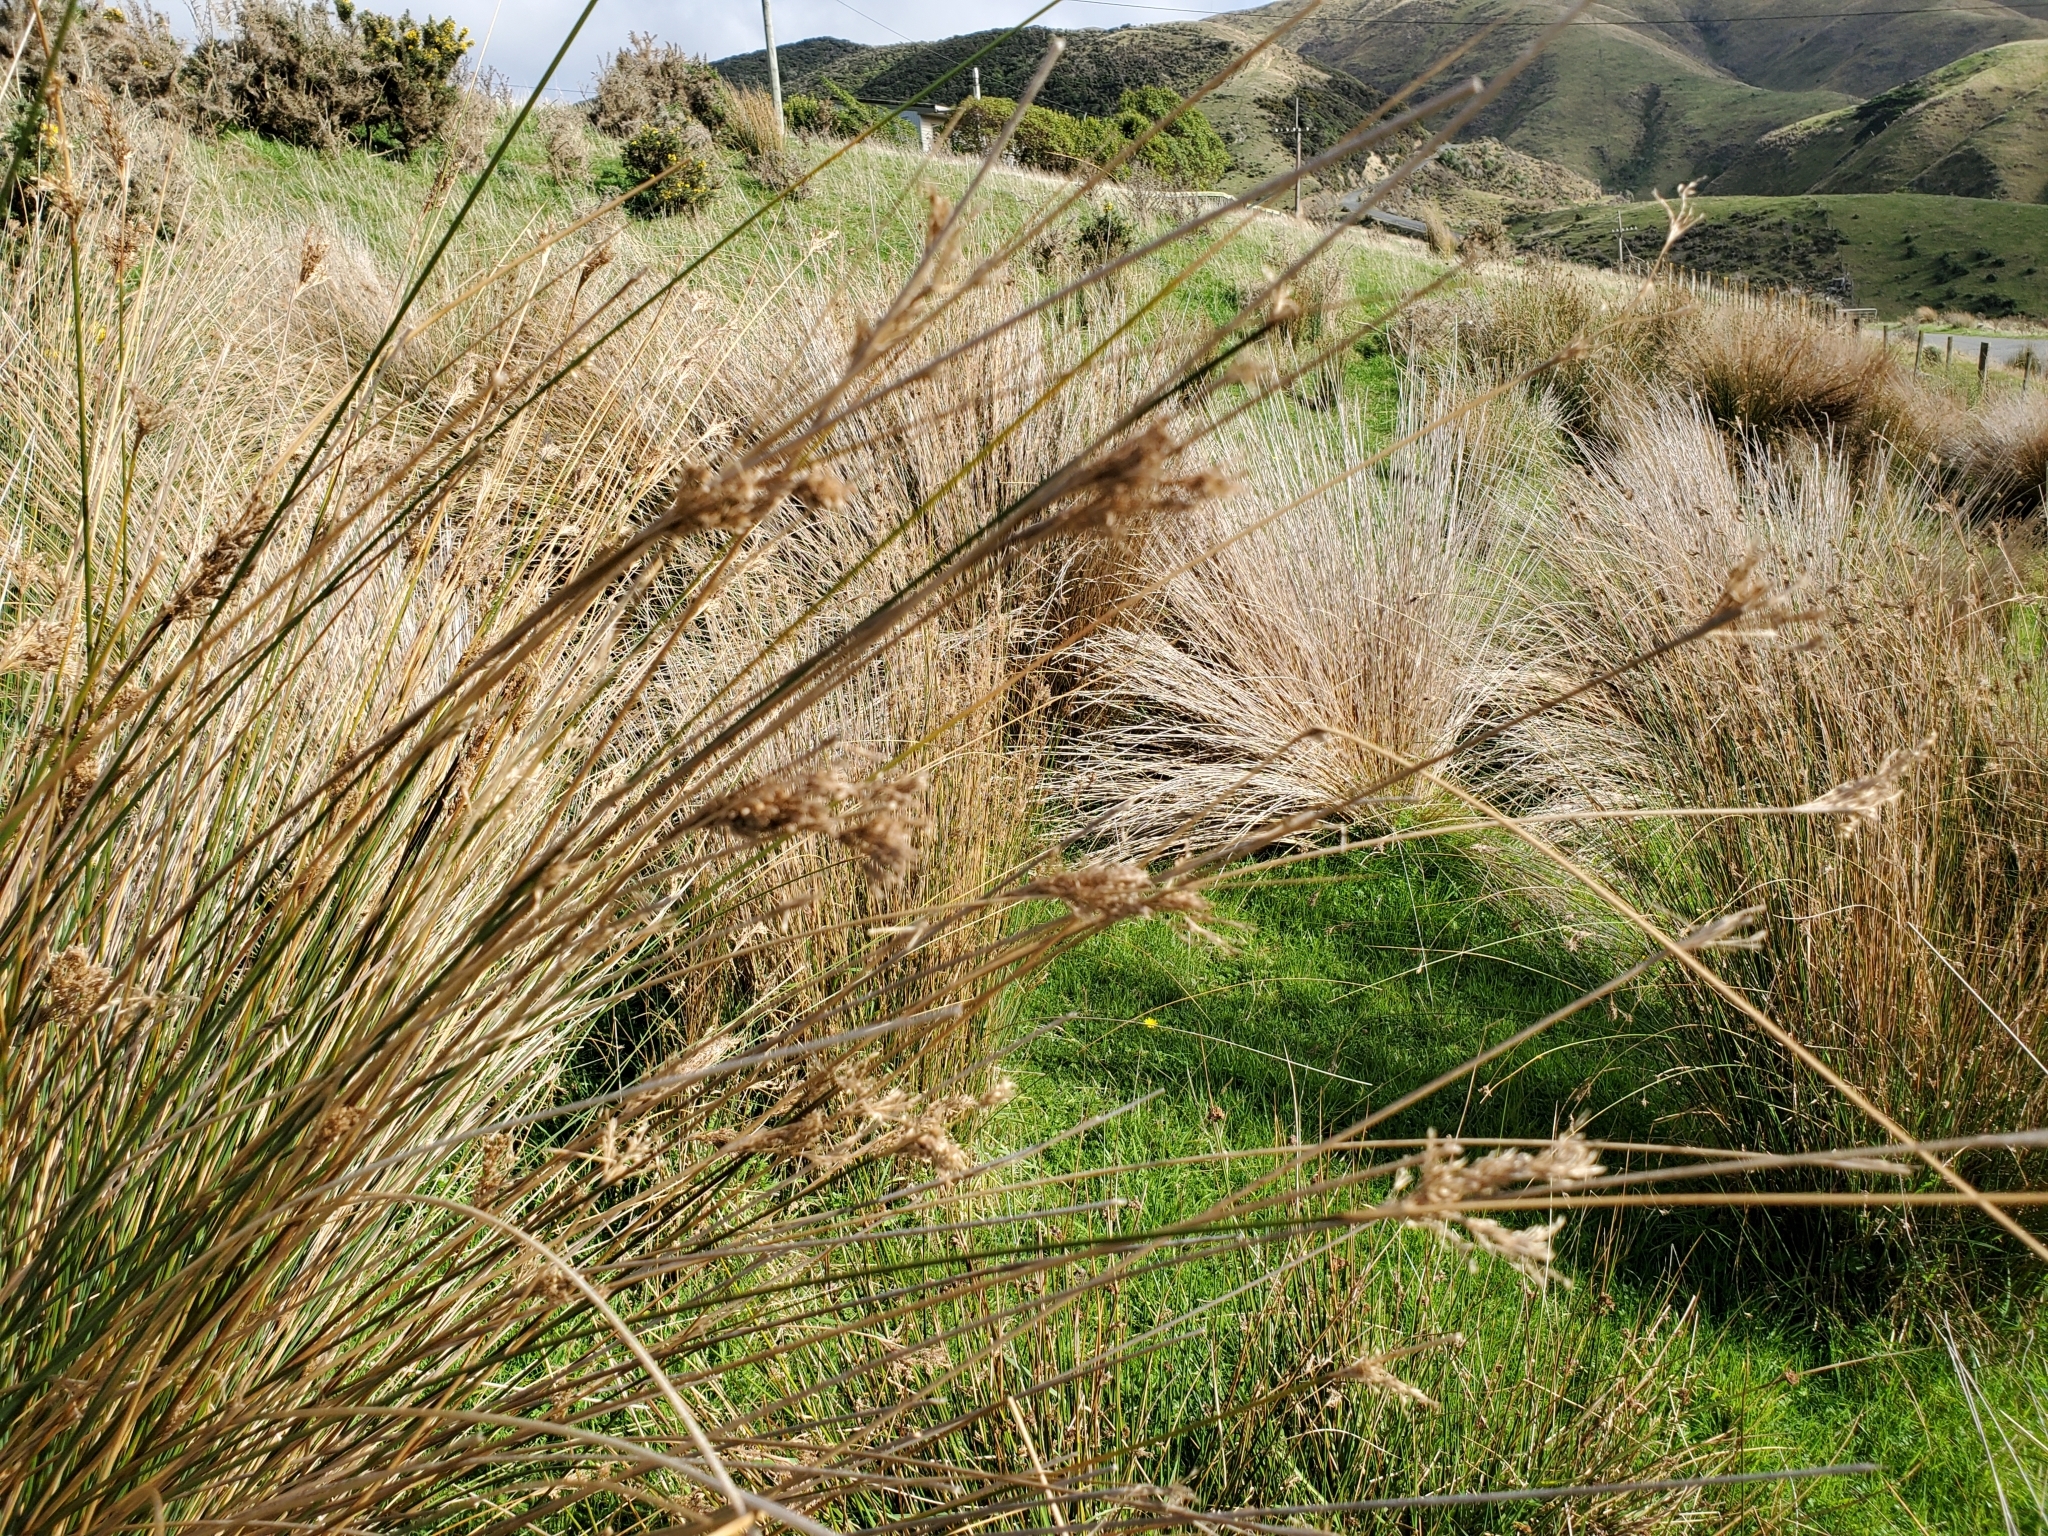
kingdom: Plantae
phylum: Tracheophyta
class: Liliopsida
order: Poales
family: Juncaceae
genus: Juncus
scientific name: Juncus sarophorus
